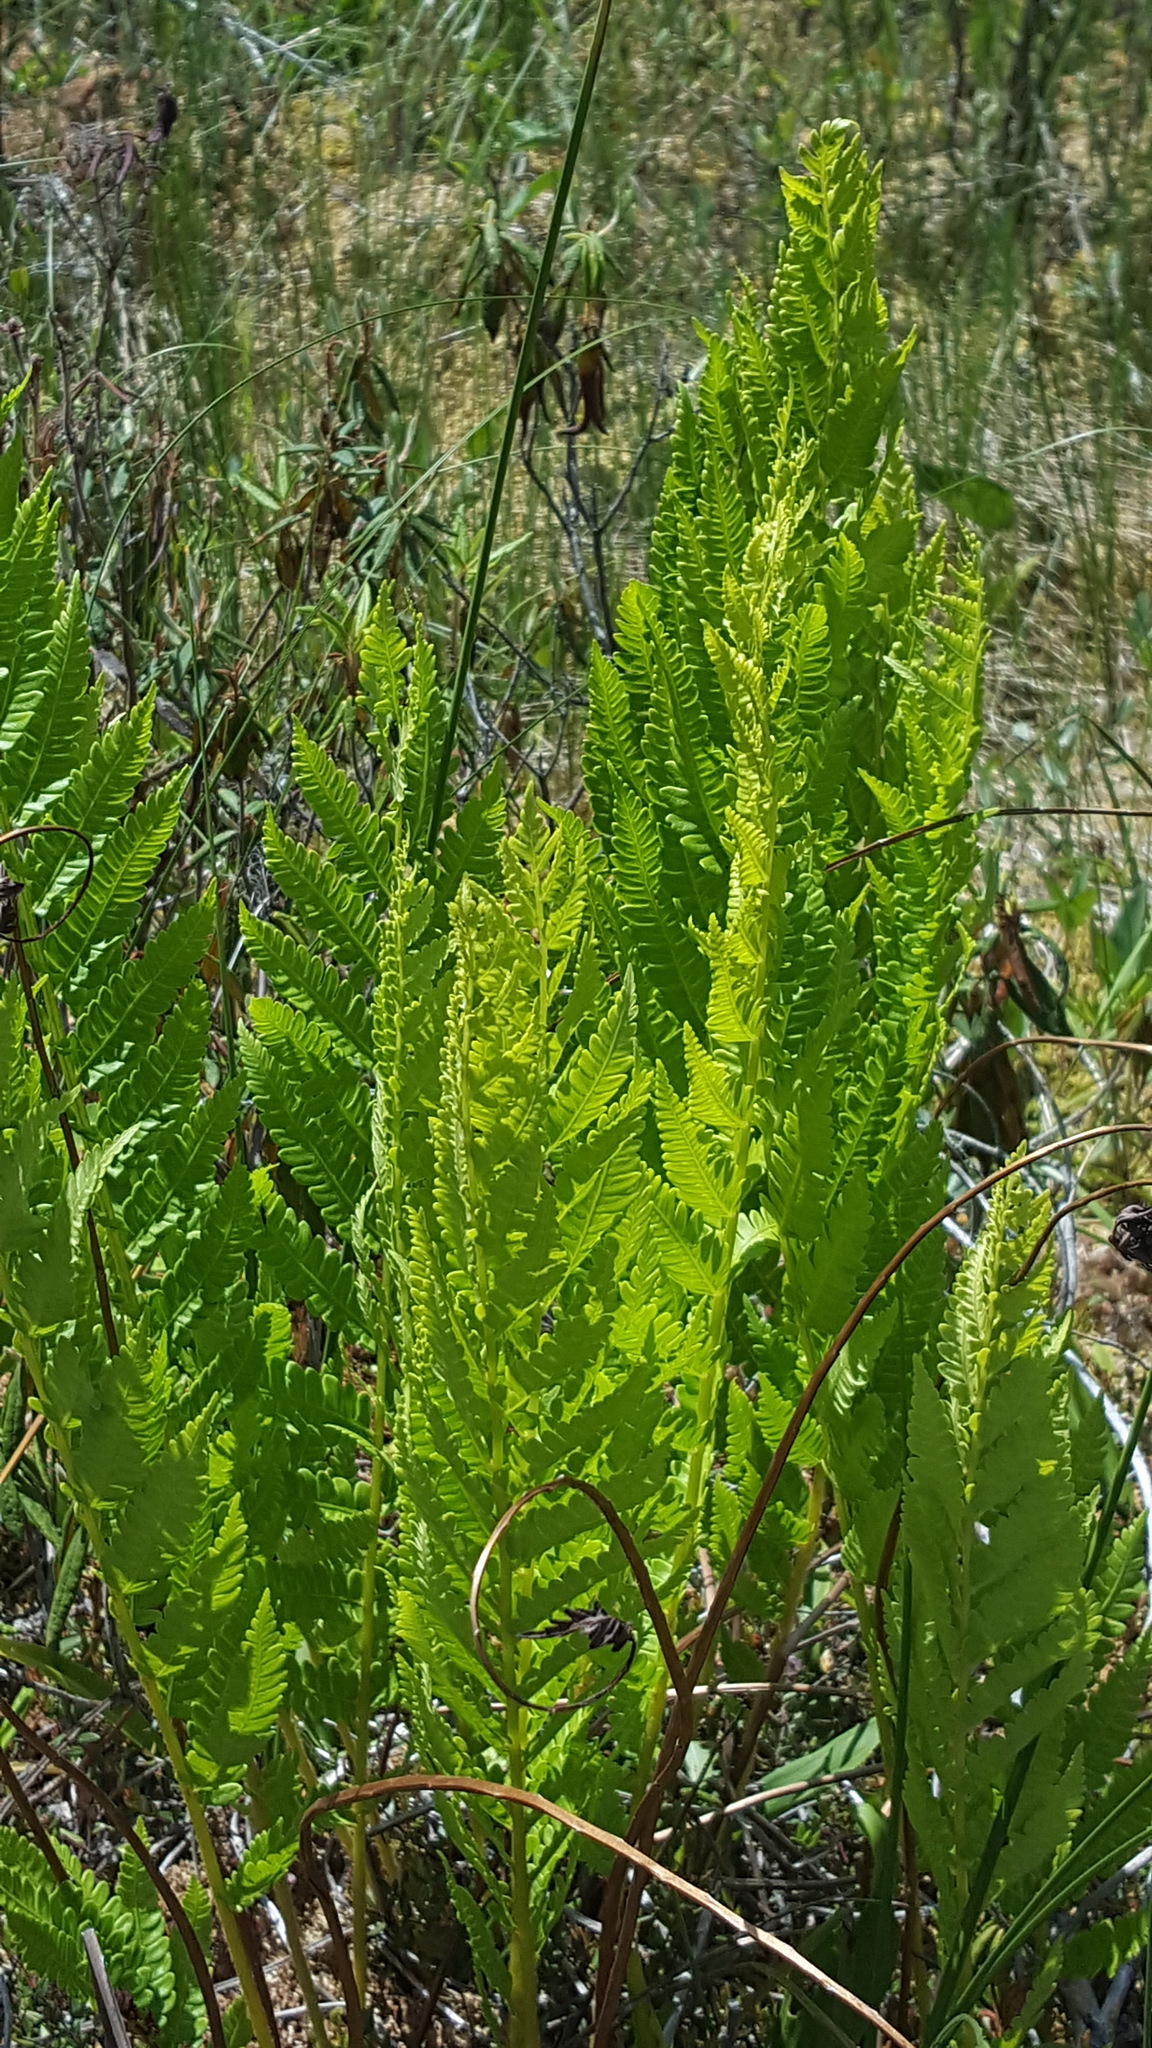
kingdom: Plantae
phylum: Tracheophyta
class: Polypodiopsida
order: Polypodiales
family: Thelypteridaceae
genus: Thelypteris
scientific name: Thelypteris palustris
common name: Marsh fern
